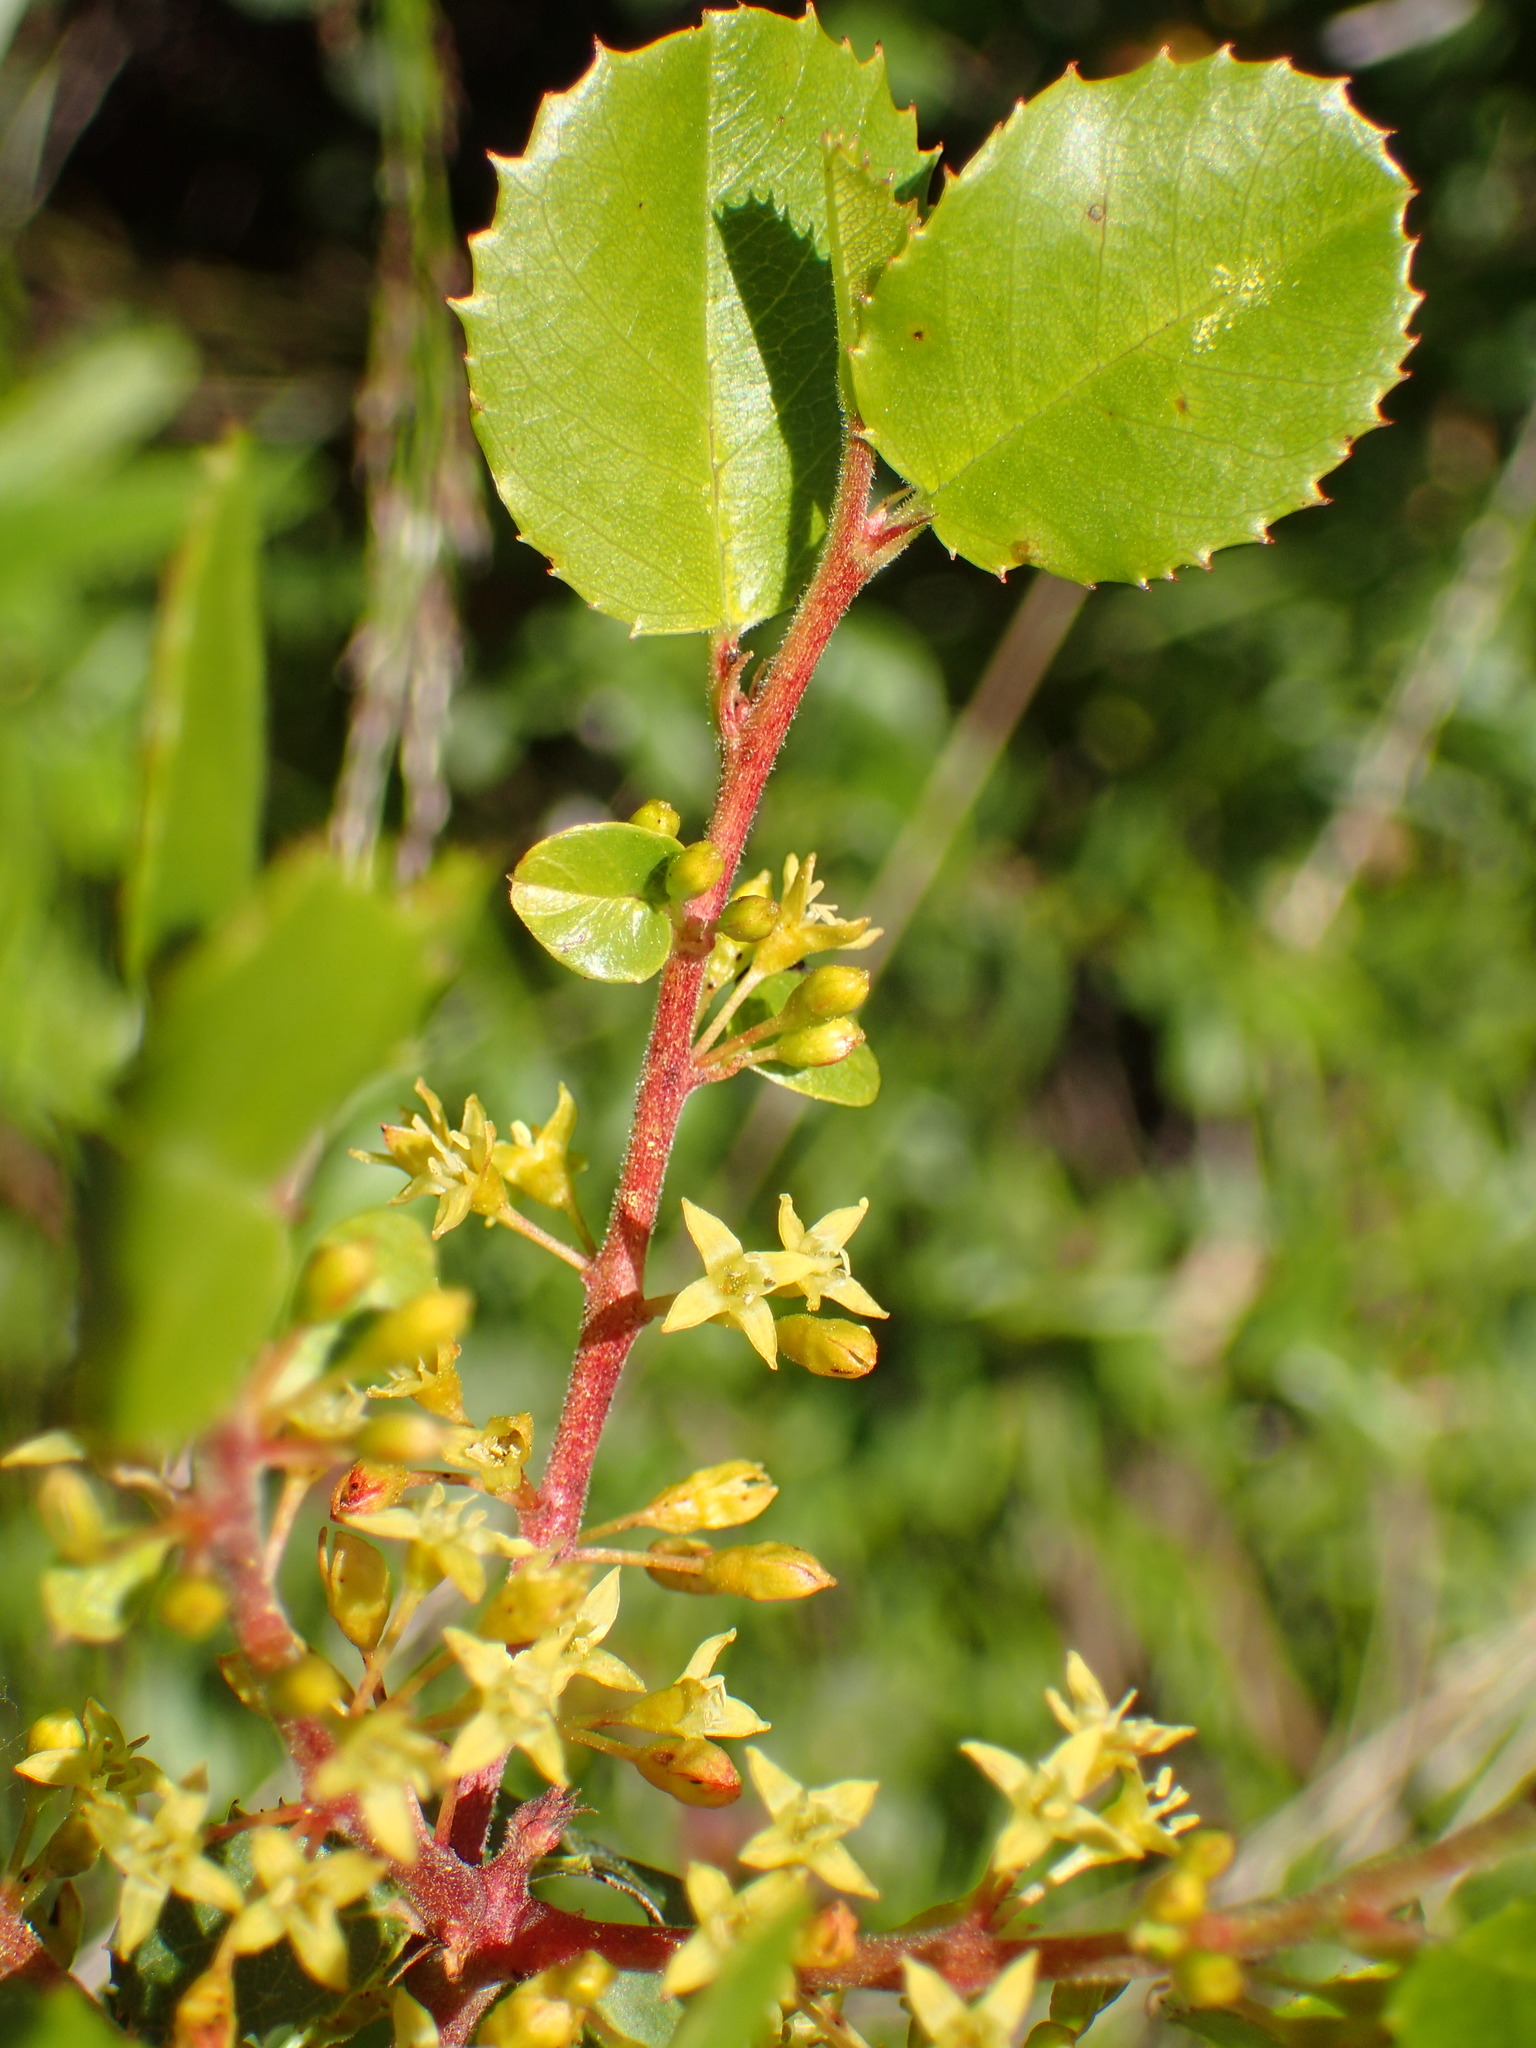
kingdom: Plantae
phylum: Tracheophyta
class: Magnoliopsida
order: Rosales
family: Rhamnaceae
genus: Endotropis
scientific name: Endotropis crocea
